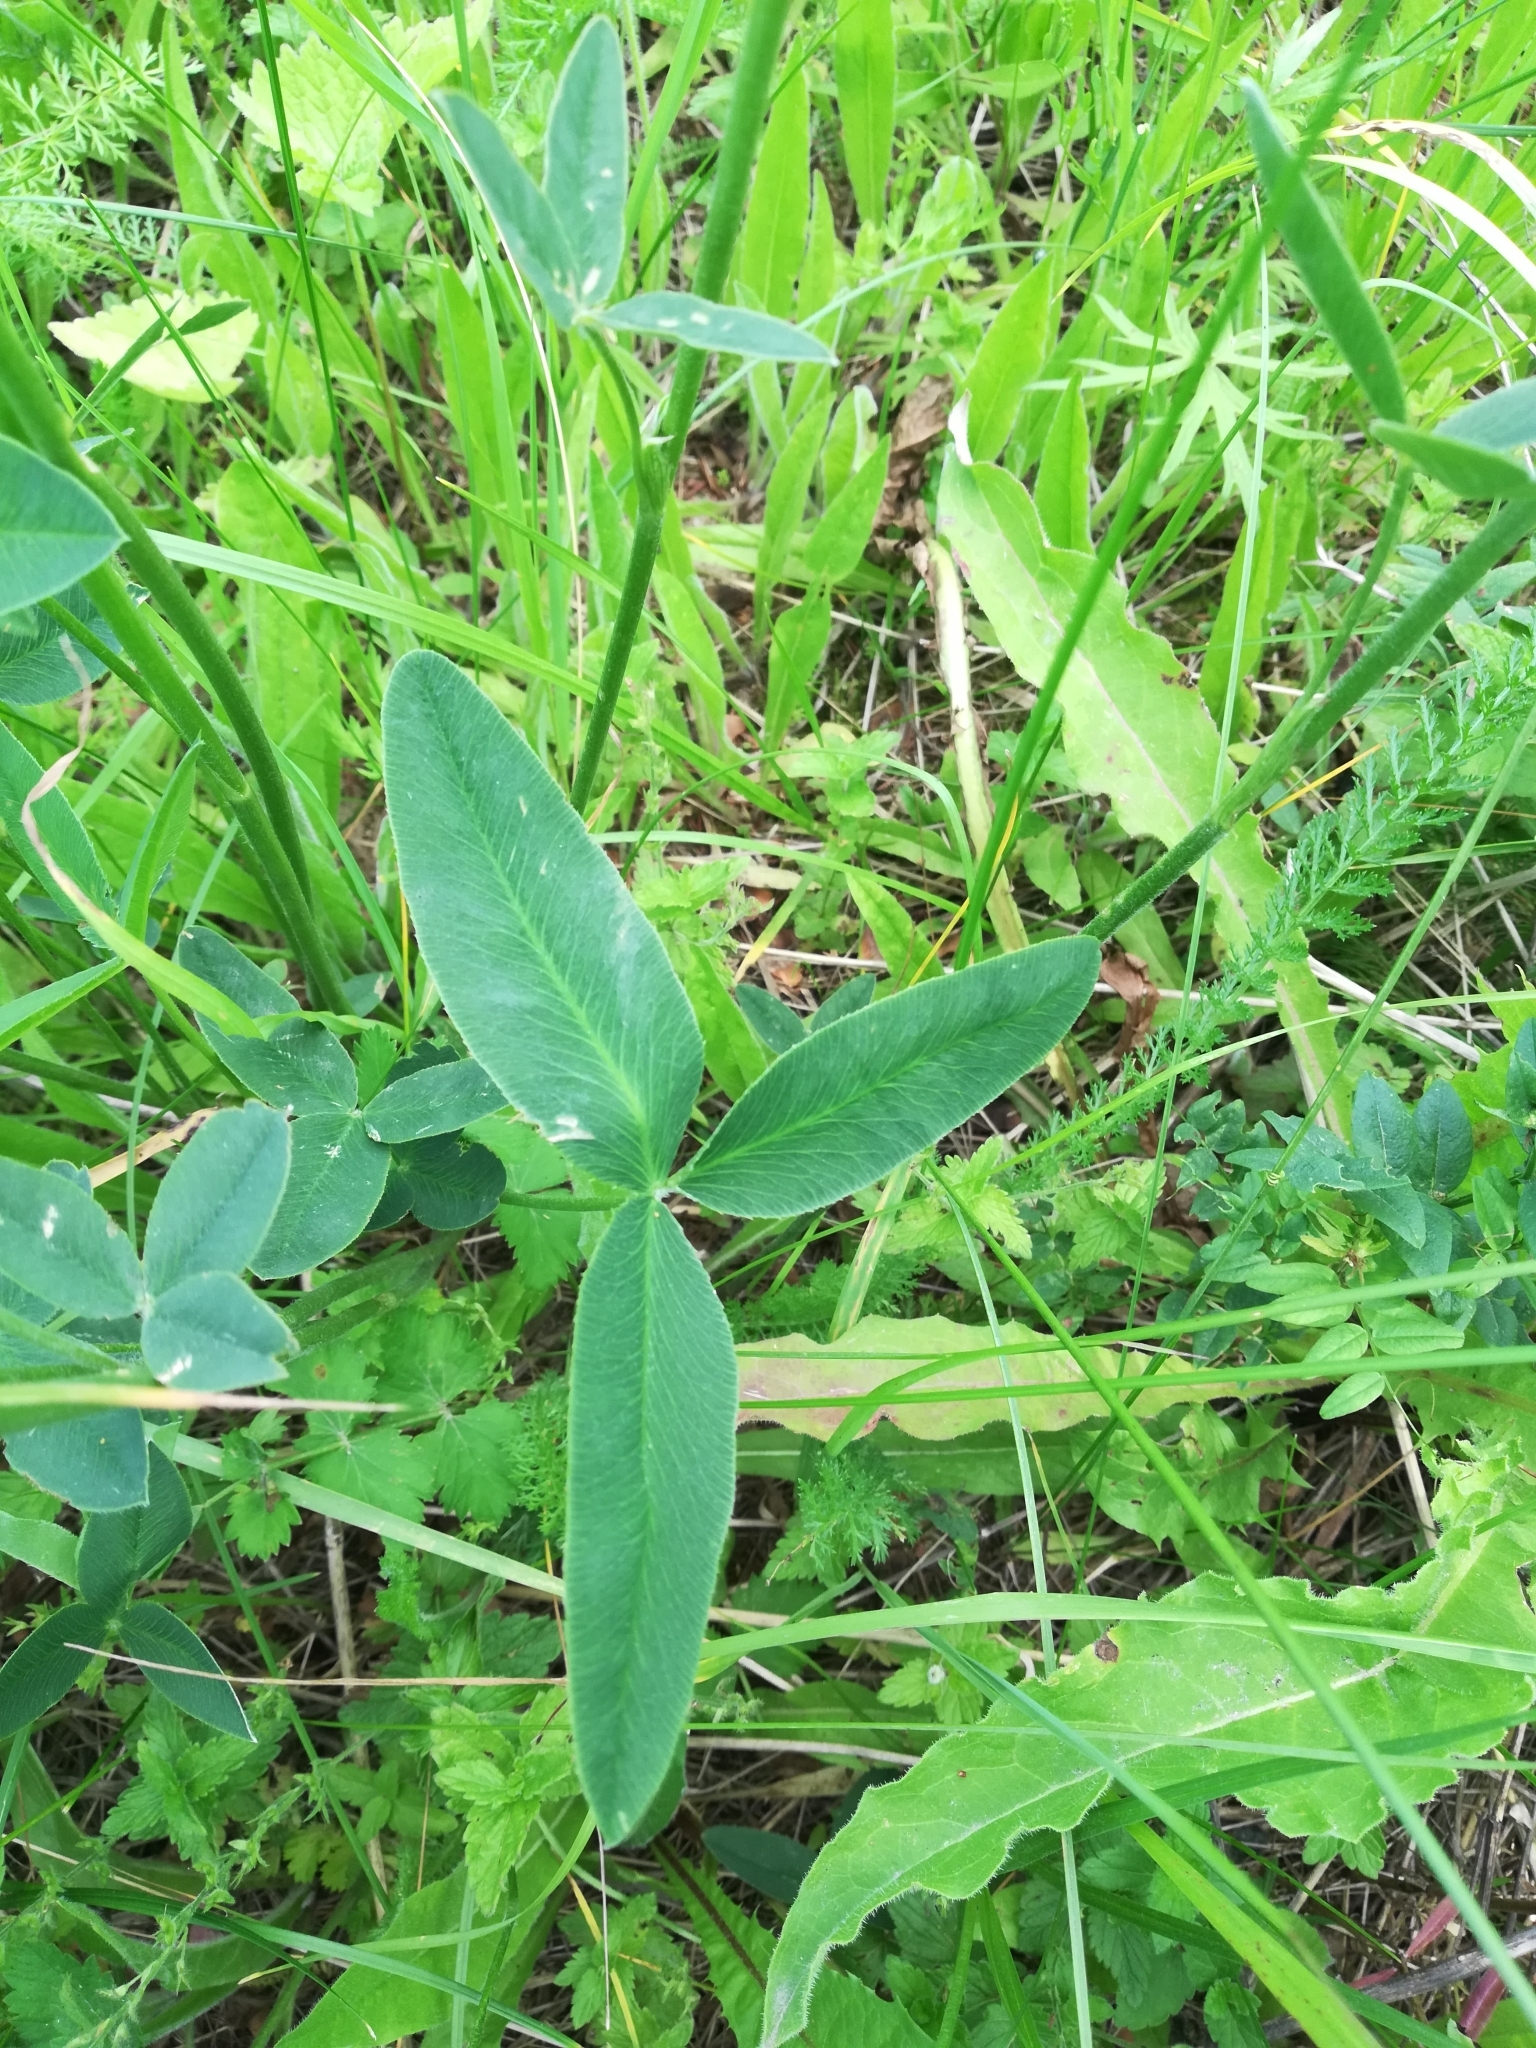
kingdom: Plantae
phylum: Tracheophyta
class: Magnoliopsida
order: Fabales
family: Fabaceae
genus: Trifolium
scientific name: Trifolium montanum
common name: Mountain clover
